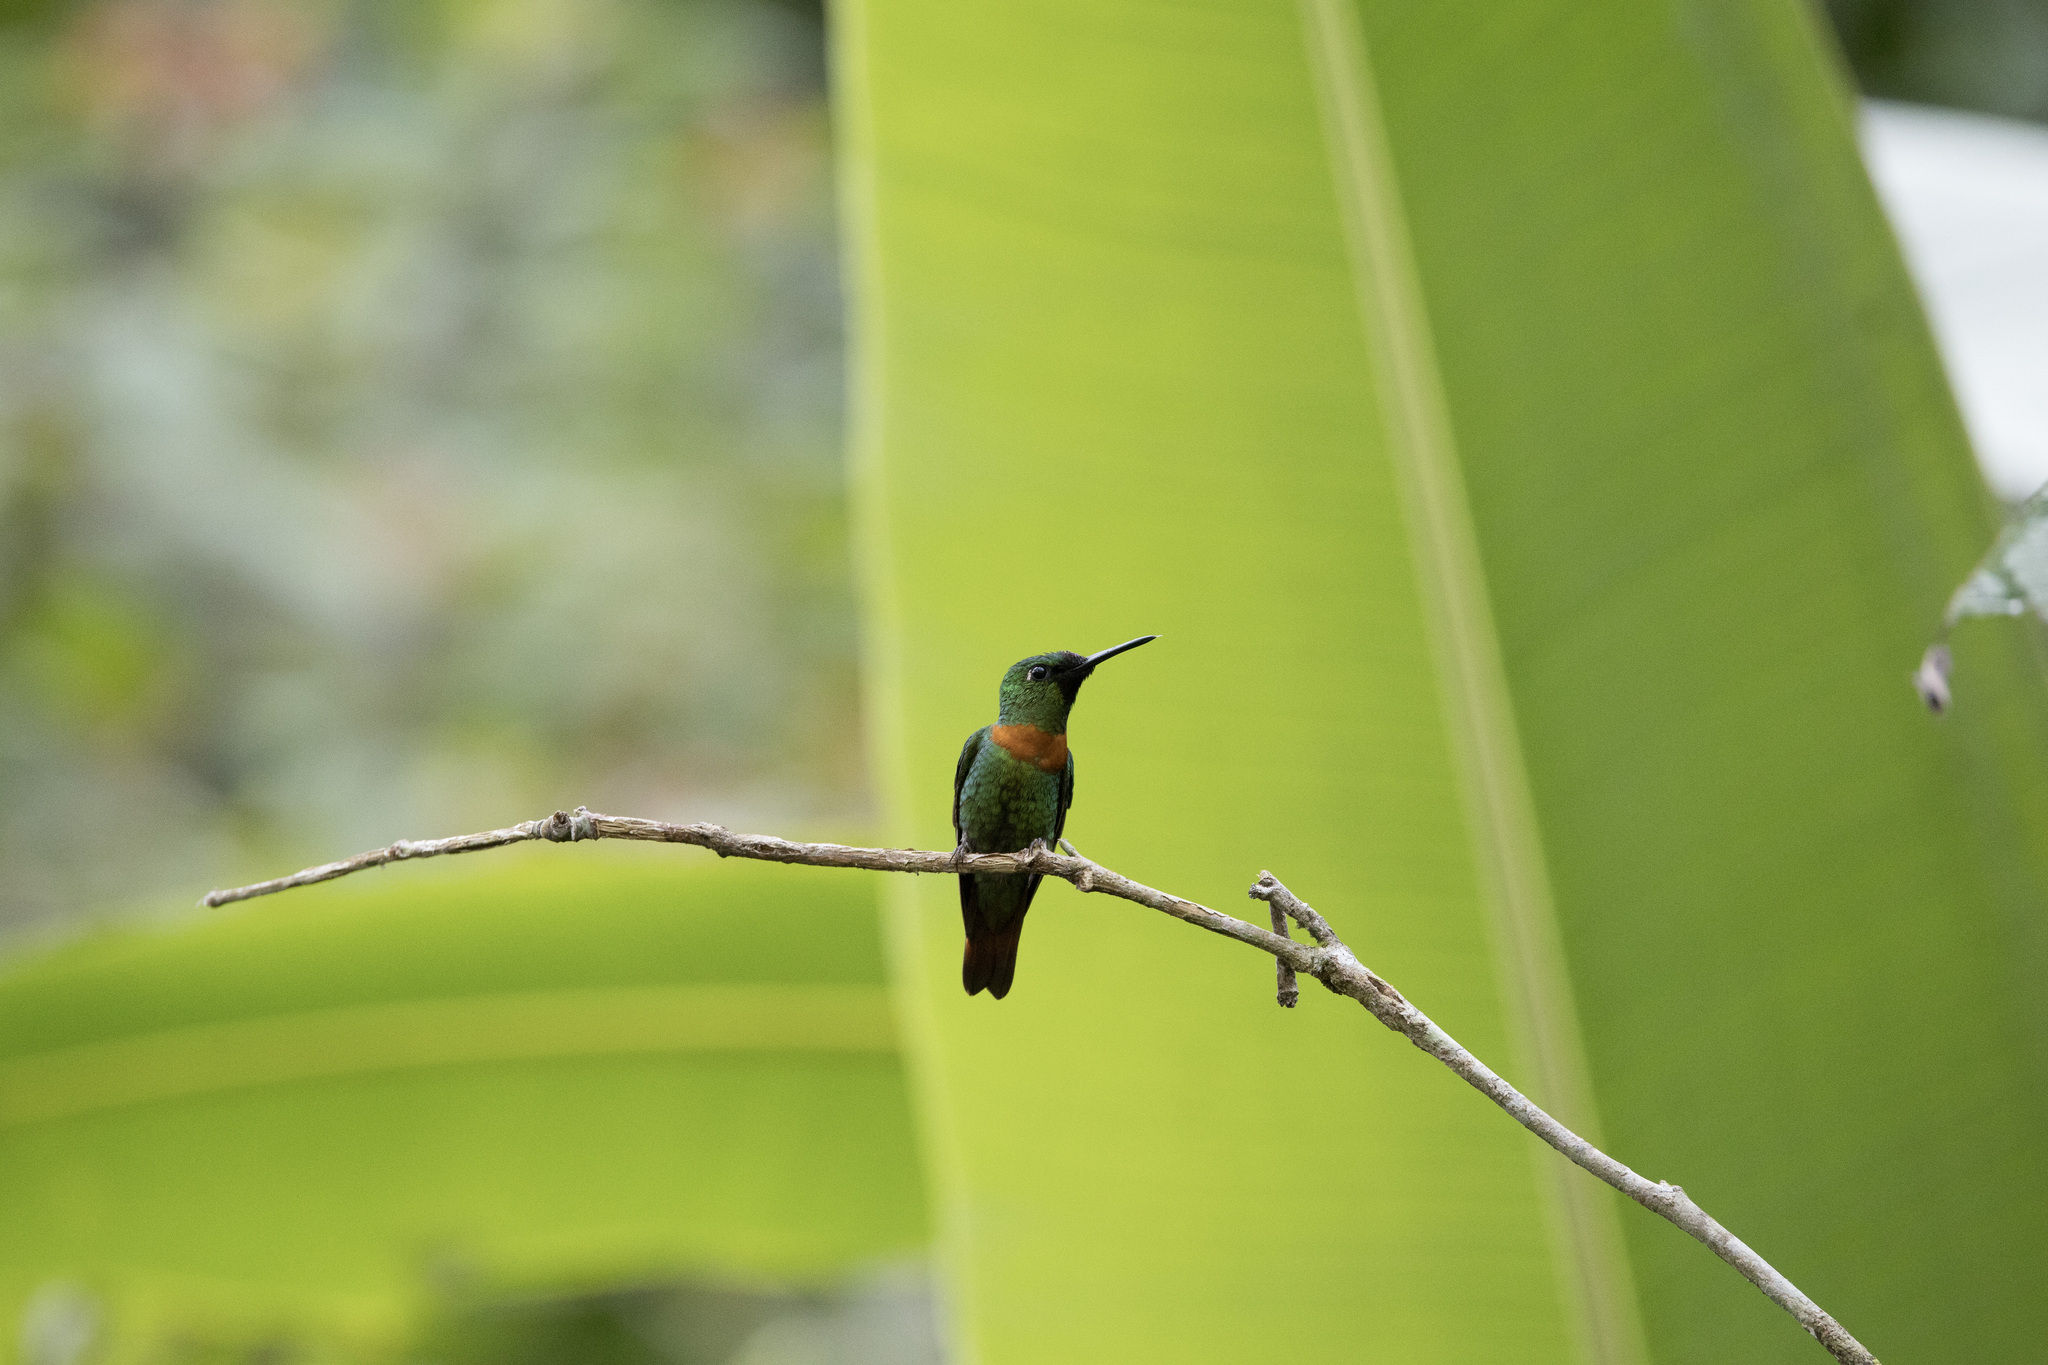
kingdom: Animalia
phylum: Chordata
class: Aves
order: Apodiformes
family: Trochilidae
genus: Heliodoxa
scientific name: Heliodoxa aurescens
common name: Gould's jewelfront
